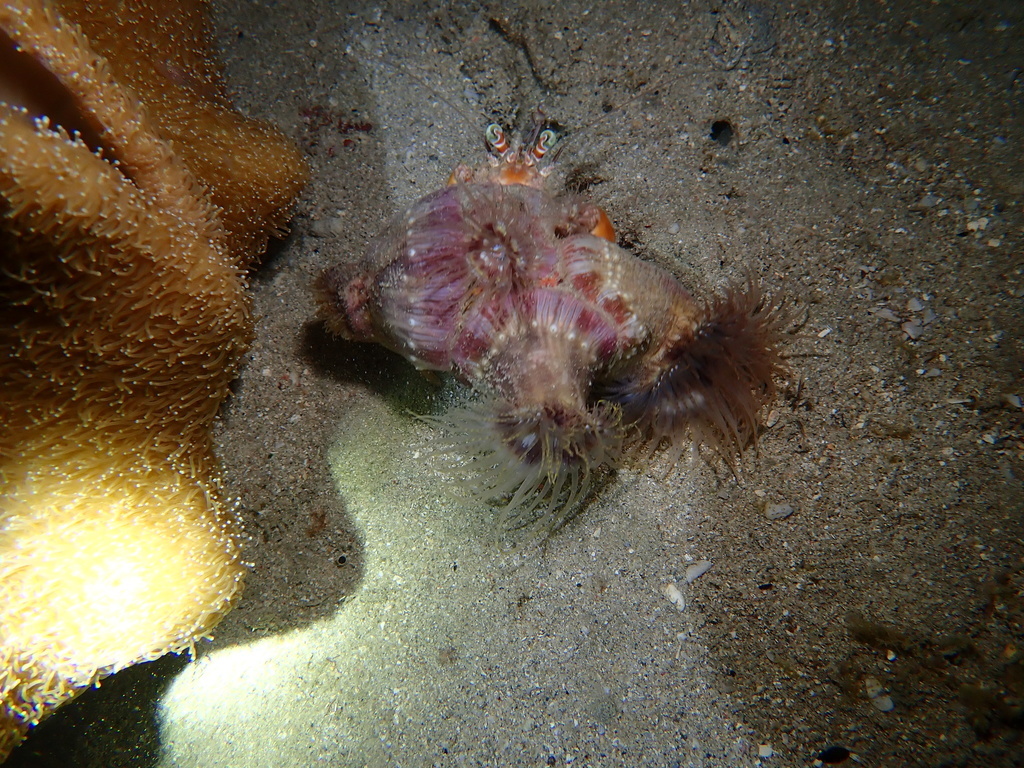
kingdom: Animalia
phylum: Cnidaria
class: Anthozoa
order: Actiniaria
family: Hormathiidae
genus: Calliactis
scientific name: Calliactis polypus
